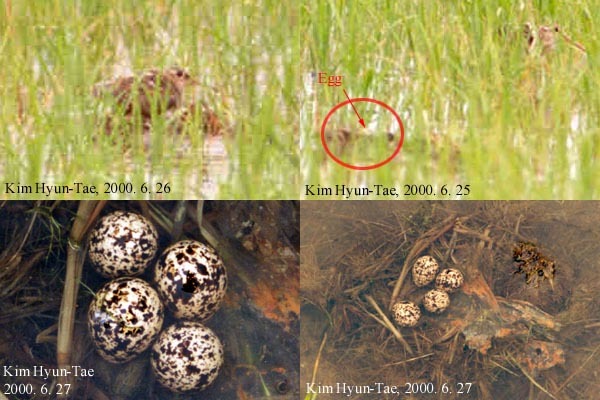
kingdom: Animalia
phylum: Chordata
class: Aves
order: Charadriiformes
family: Rostratulidae
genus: Rostratula
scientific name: Rostratula benghalensis
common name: Greater painted-snipe
